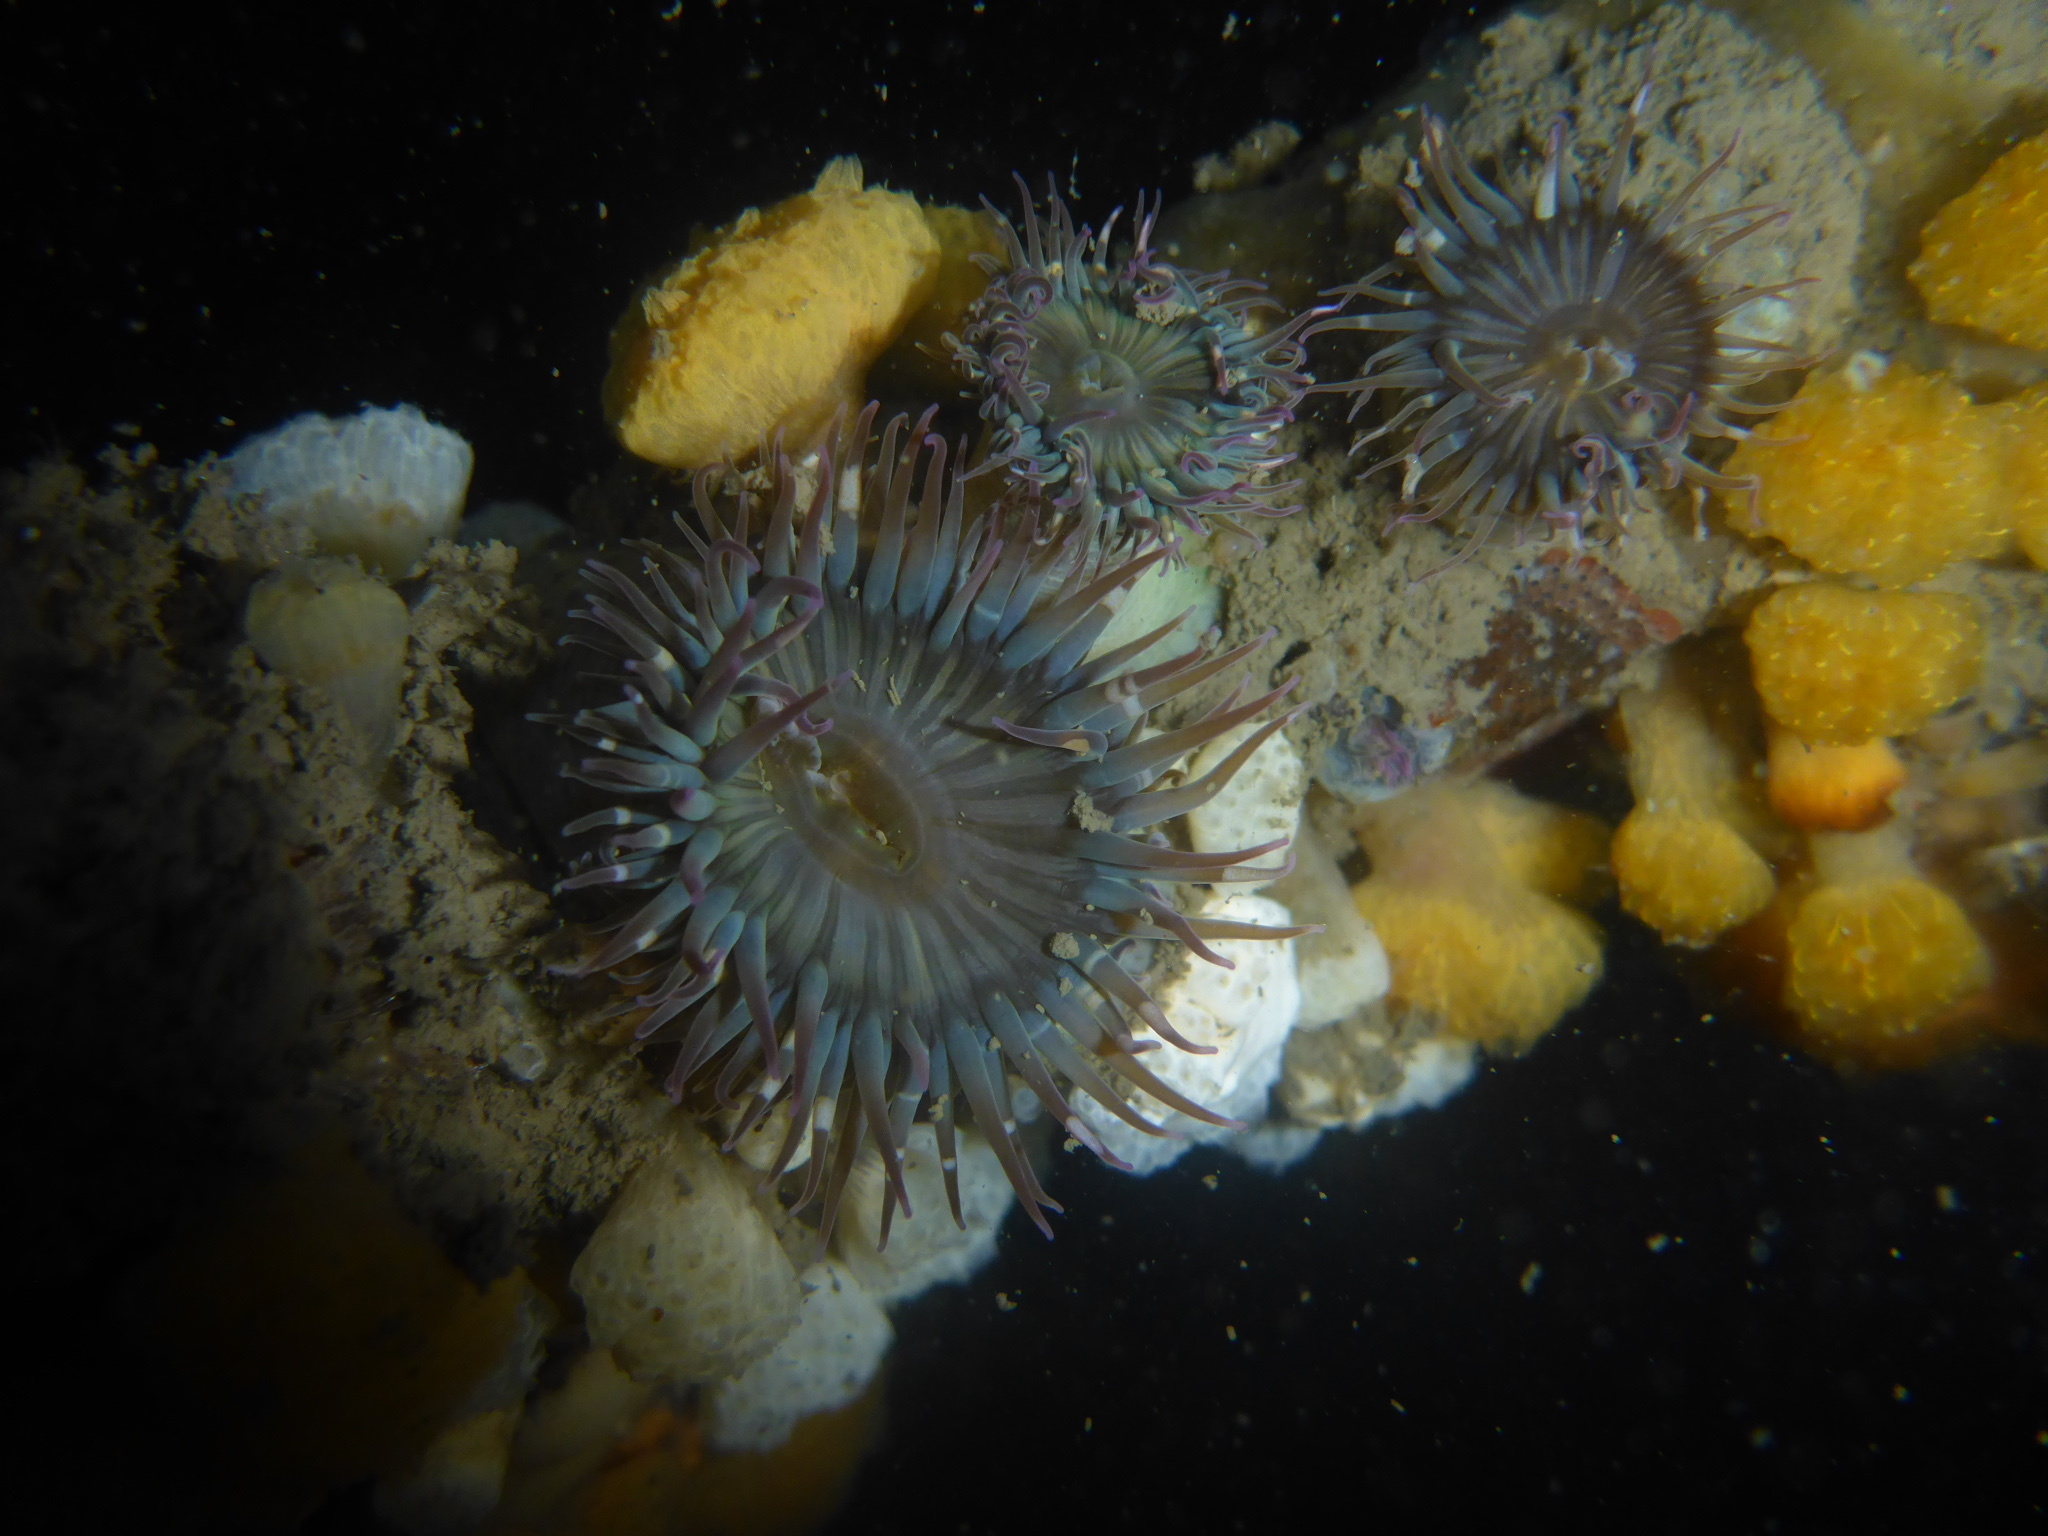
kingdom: Animalia
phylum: Cnidaria
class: Anthozoa
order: Actiniaria
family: Actiniidae
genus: Anthopleura
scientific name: Anthopleura elegantissima
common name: Clonal anemone
